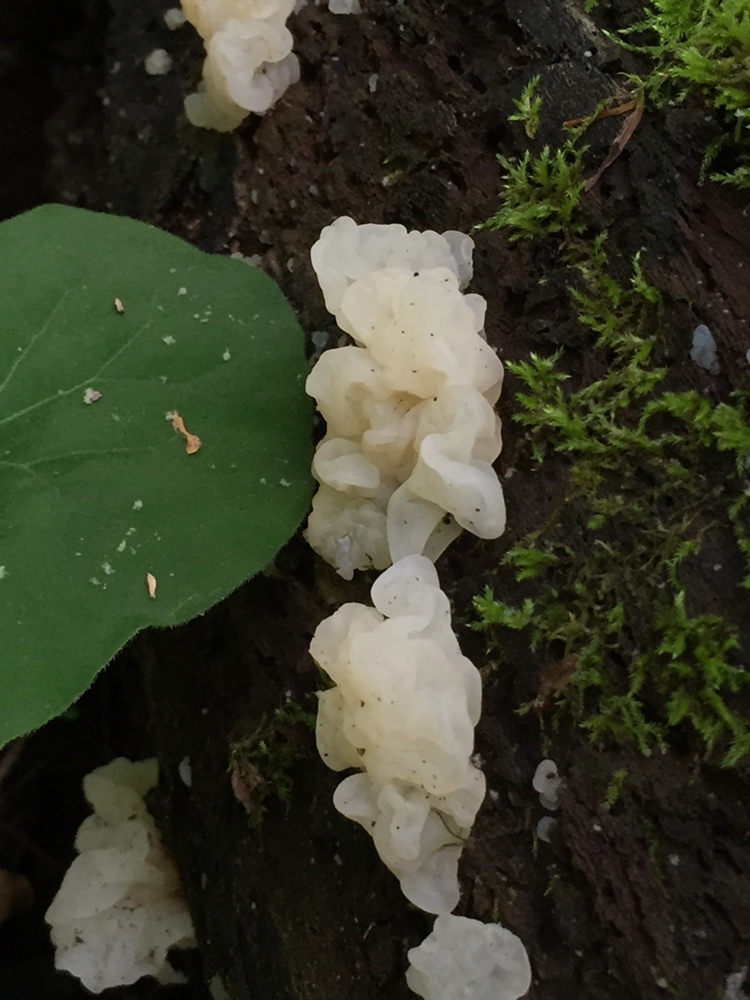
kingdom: Fungi
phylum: Basidiomycota
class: Agaricomycetes
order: Auriculariales
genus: Ductifera
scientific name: Ductifera pululahuana
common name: White jelly fungus
